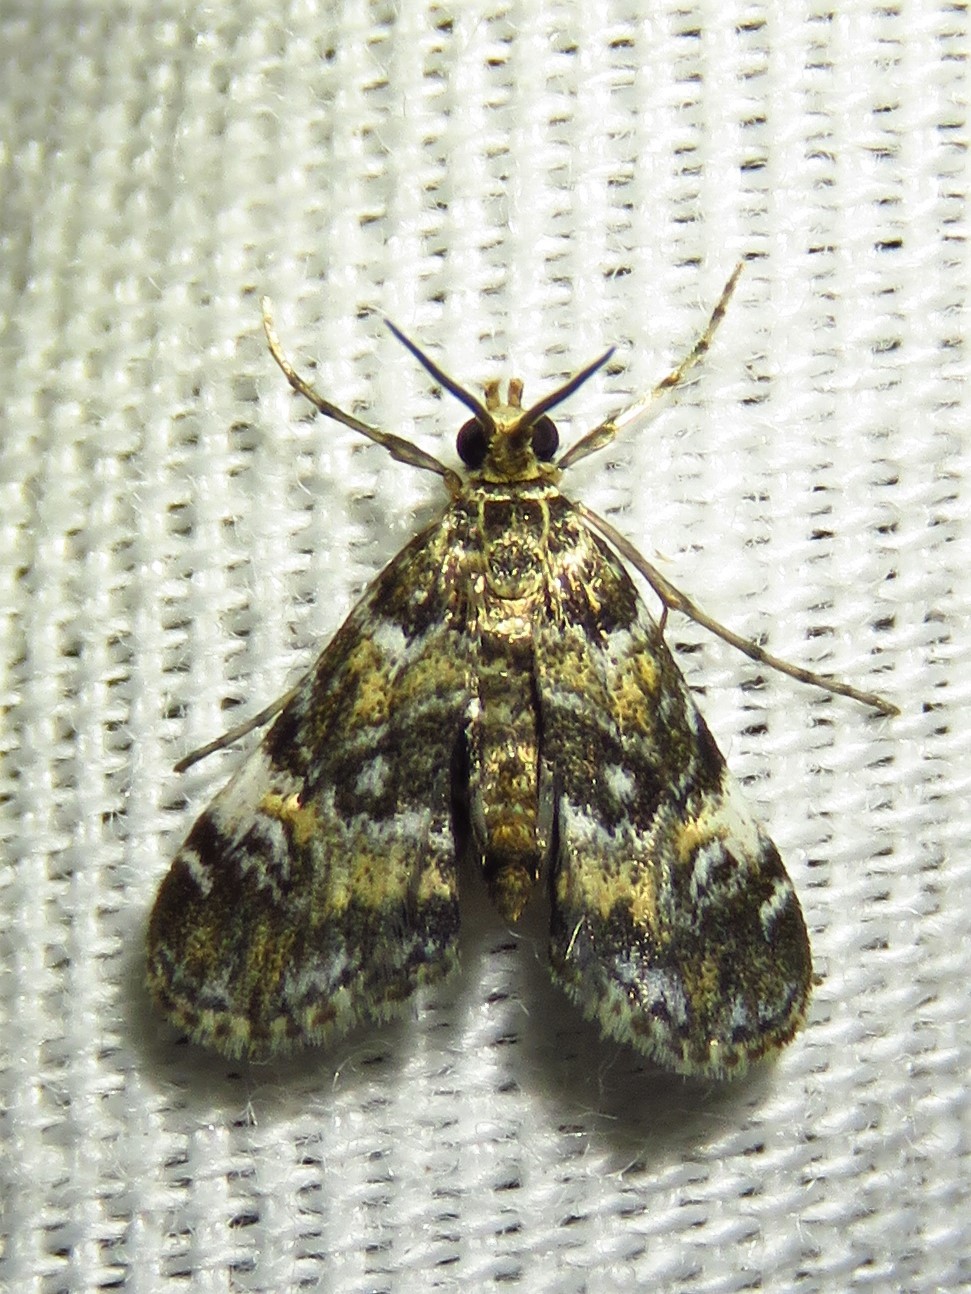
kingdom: Animalia
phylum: Arthropoda
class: Insecta
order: Lepidoptera
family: Crambidae
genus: Elophila
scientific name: Elophila obliteralis
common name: Waterlily leafcutter moth
